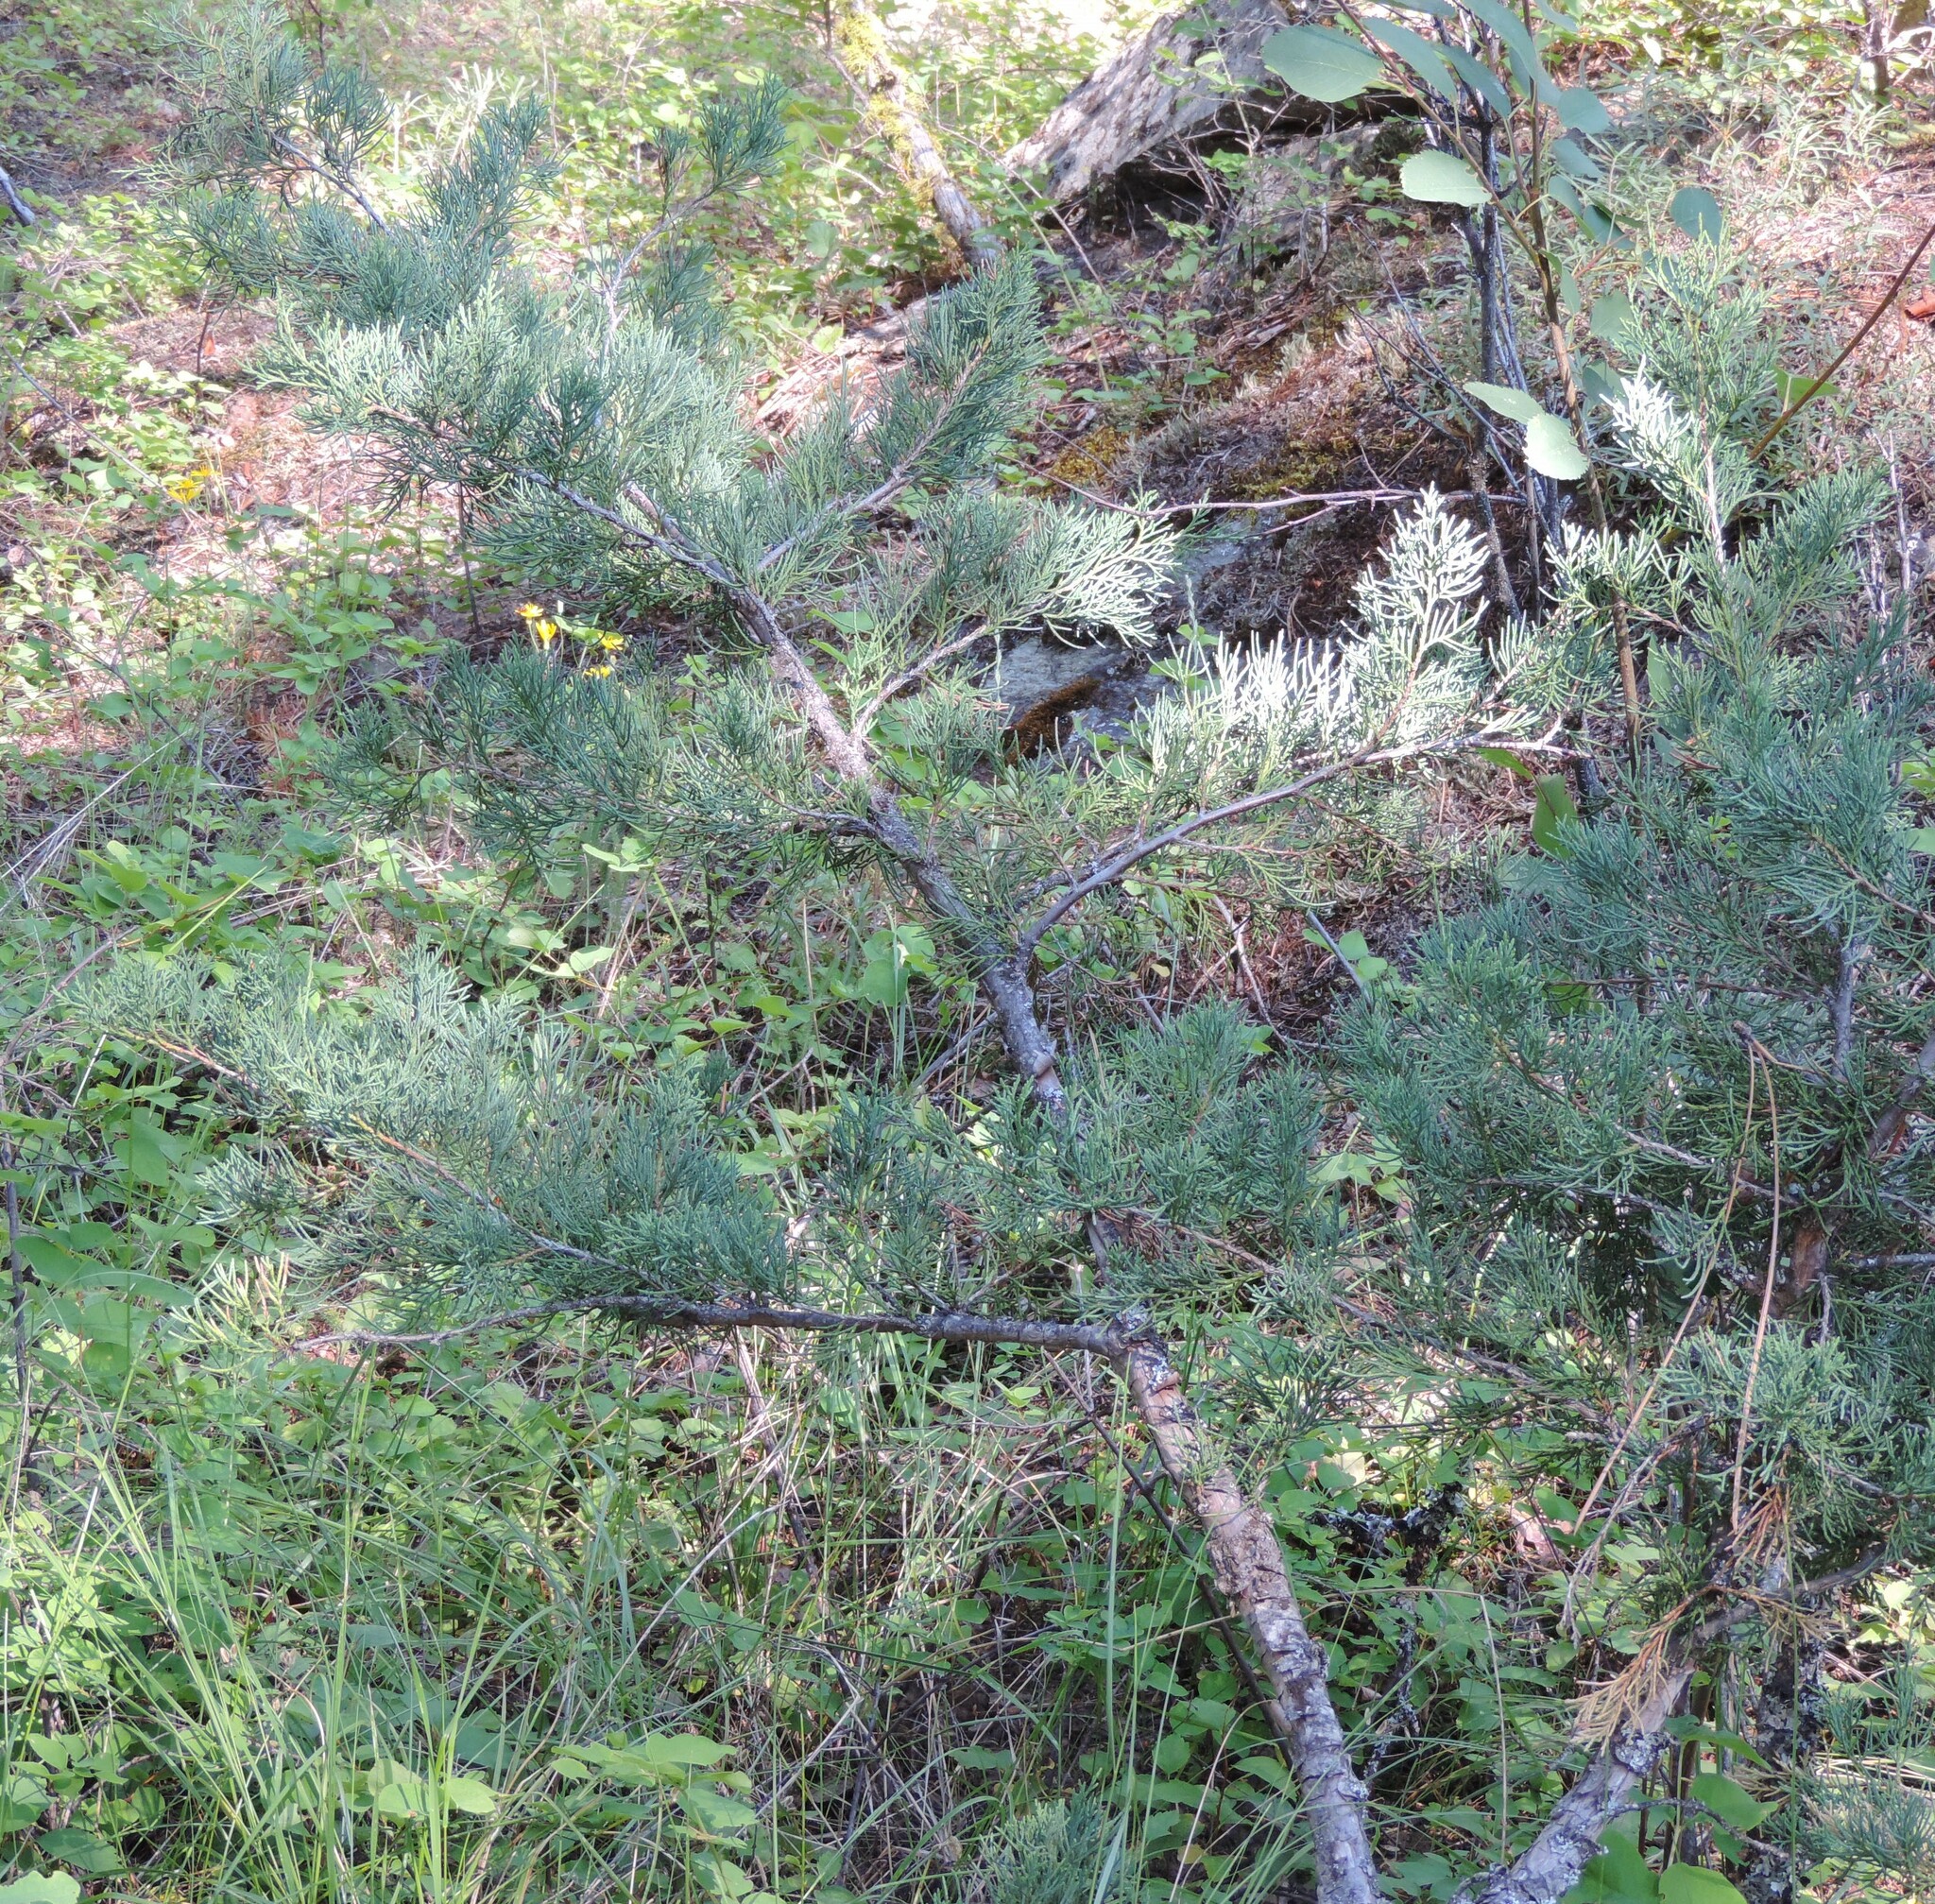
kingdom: Plantae
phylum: Tracheophyta
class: Pinopsida
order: Pinales
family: Cupressaceae
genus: Juniperus
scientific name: Juniperus scopulorum
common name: Rocky mountain juniper
